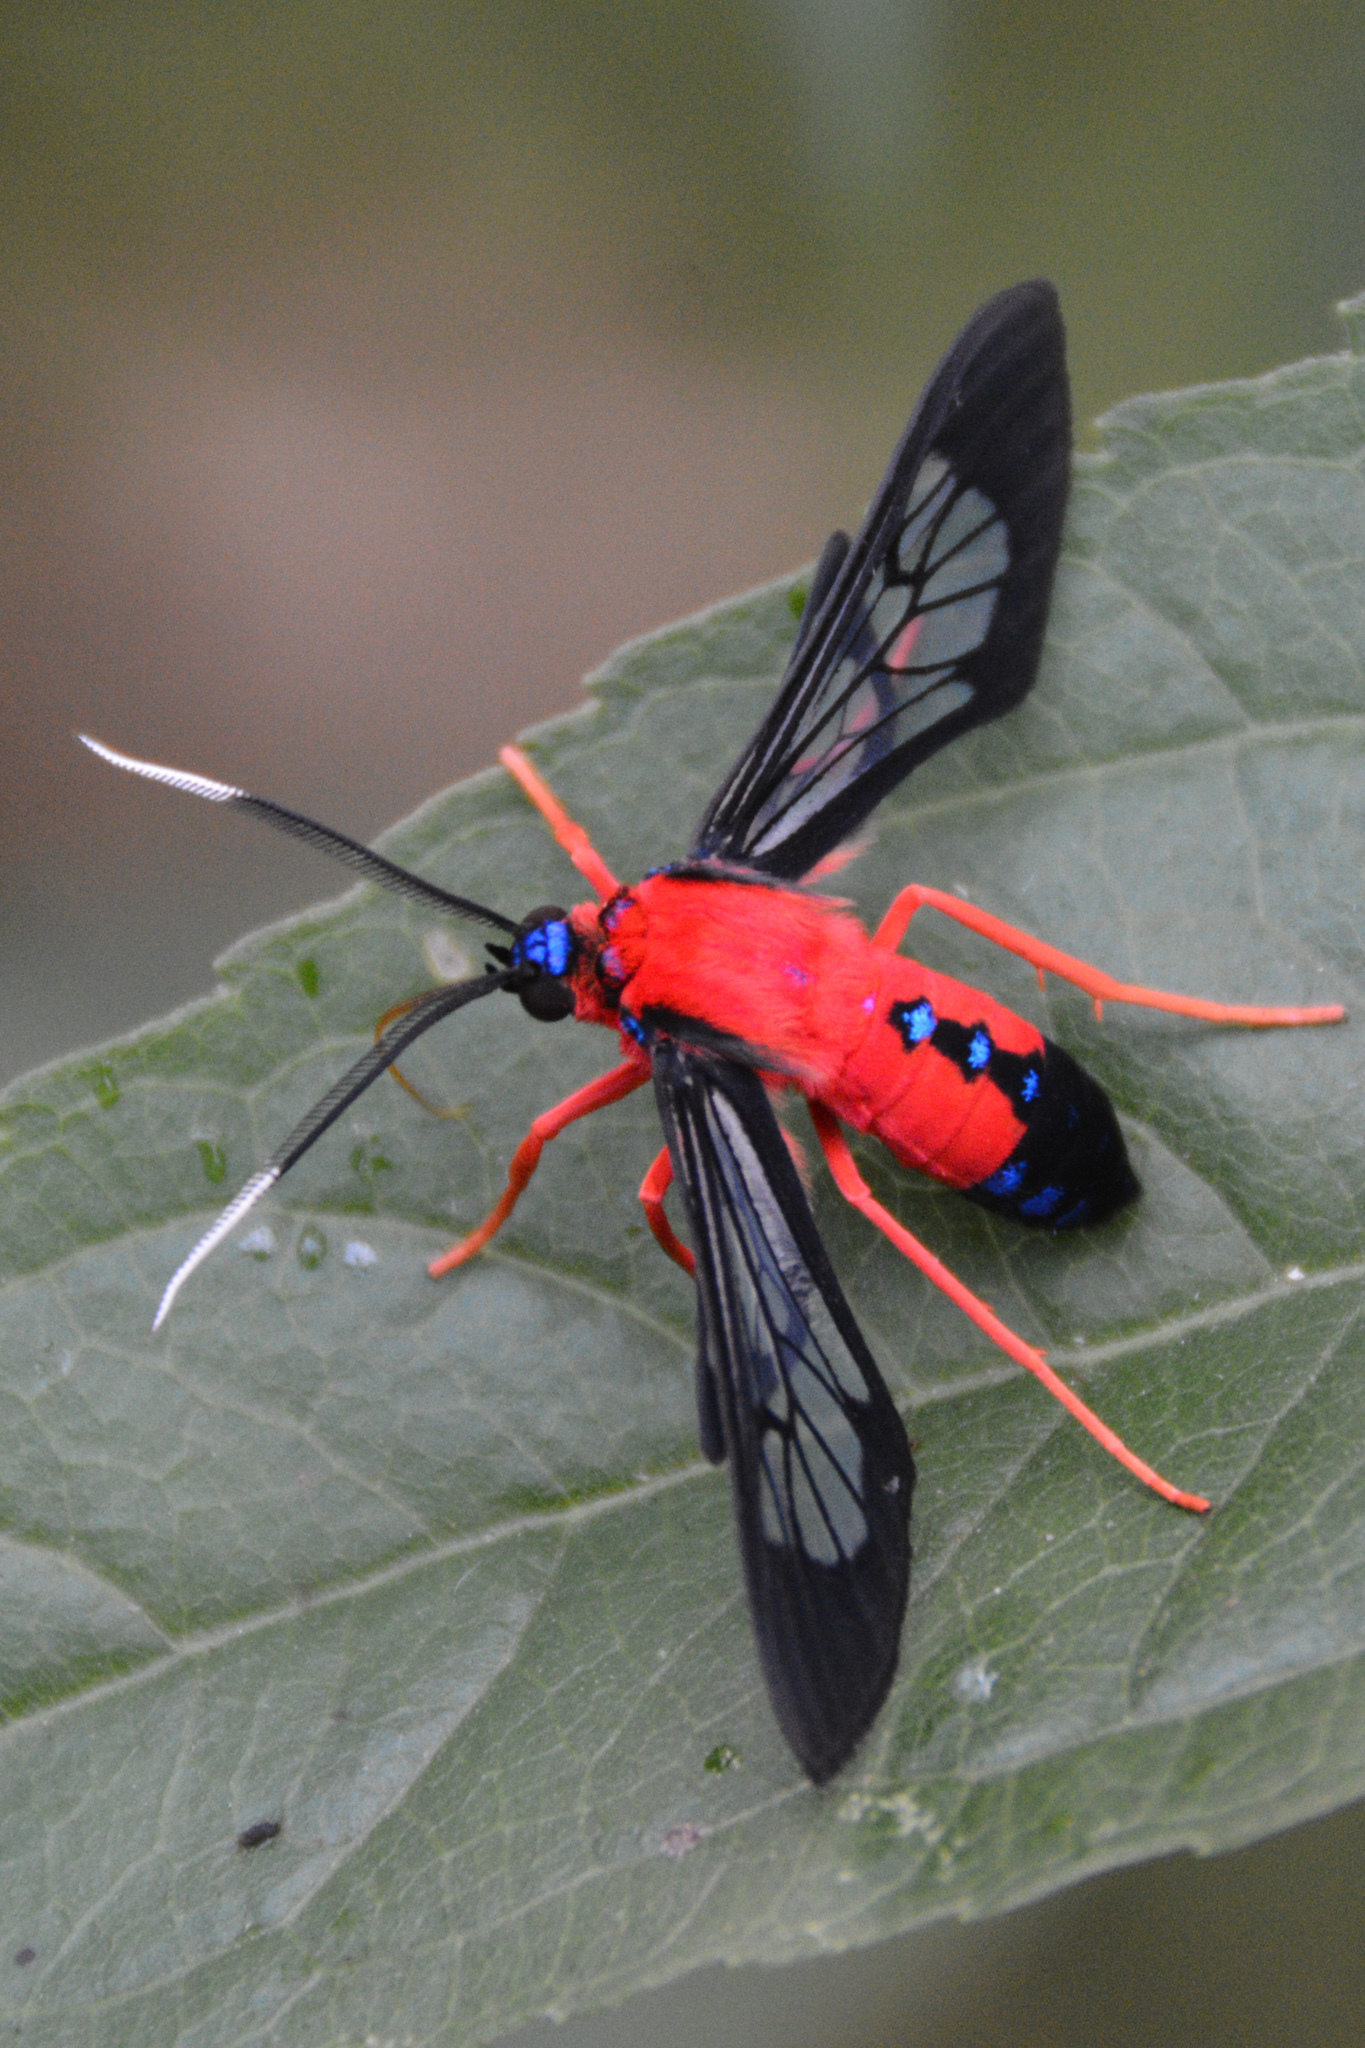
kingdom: Animalia
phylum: Arthropoda
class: Insecta
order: Lepidoptera
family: Erebidae
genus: Cosmosoma
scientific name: Cosmosoma myrodora
